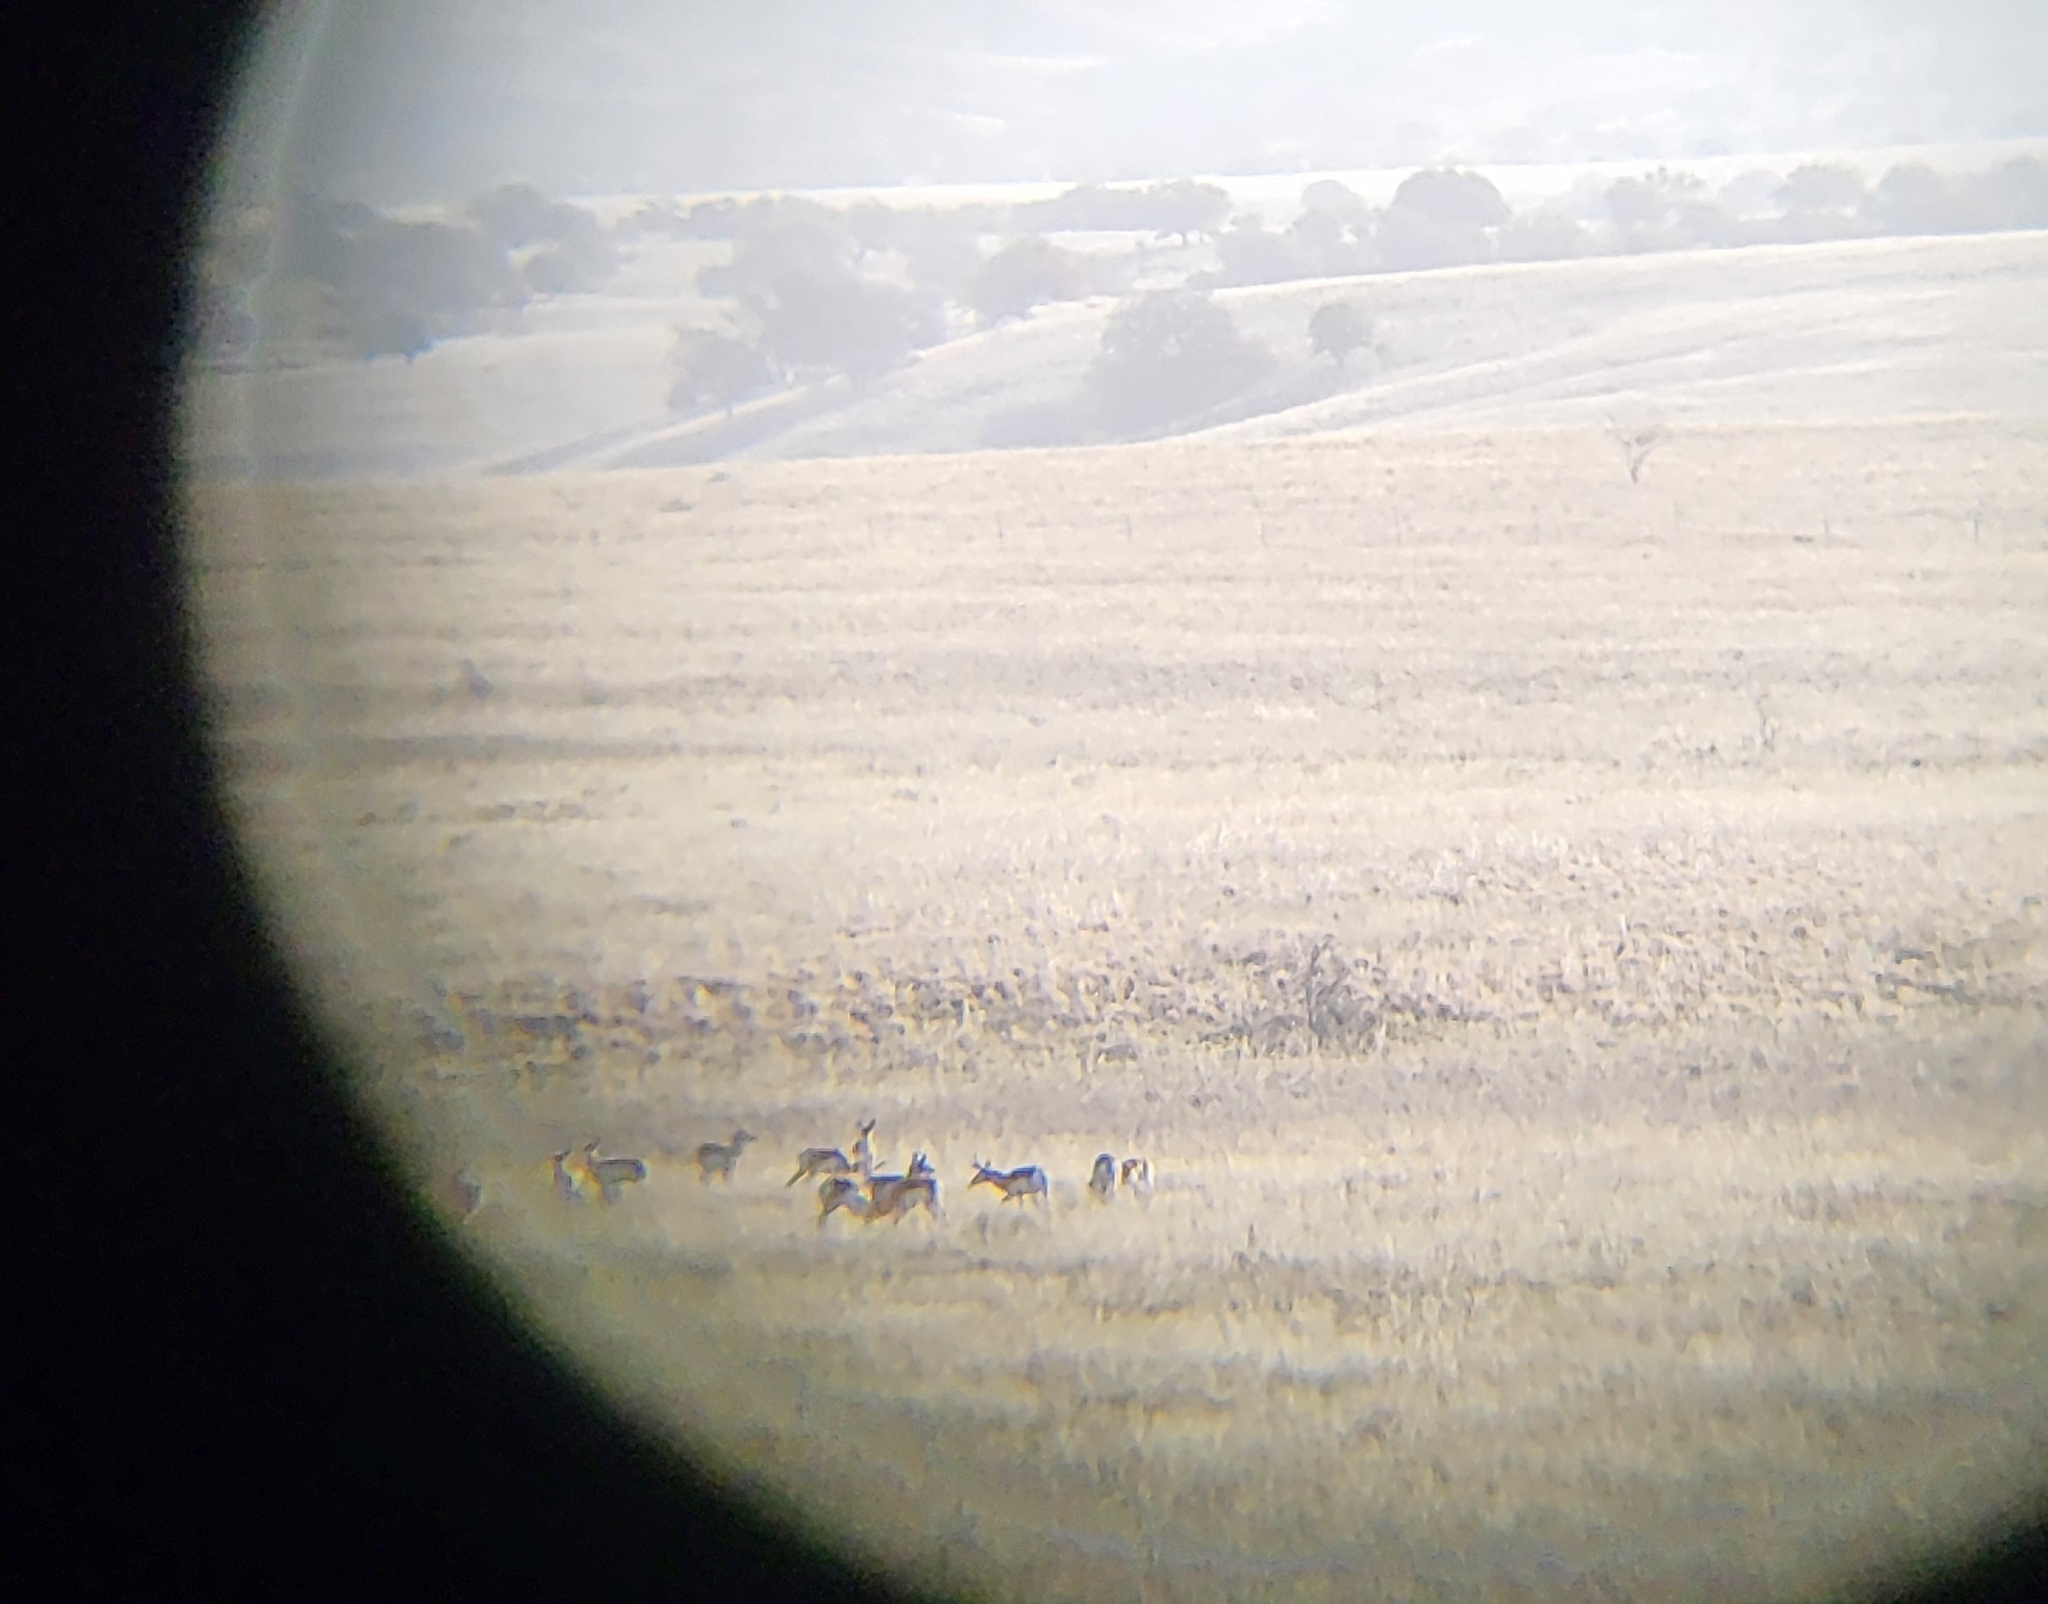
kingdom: Animalia
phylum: Chordata
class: Mammalia
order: Artiodactyla
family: Antilocapridae
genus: Antilocapra
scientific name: Antilocapra americana
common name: Pronghorn
